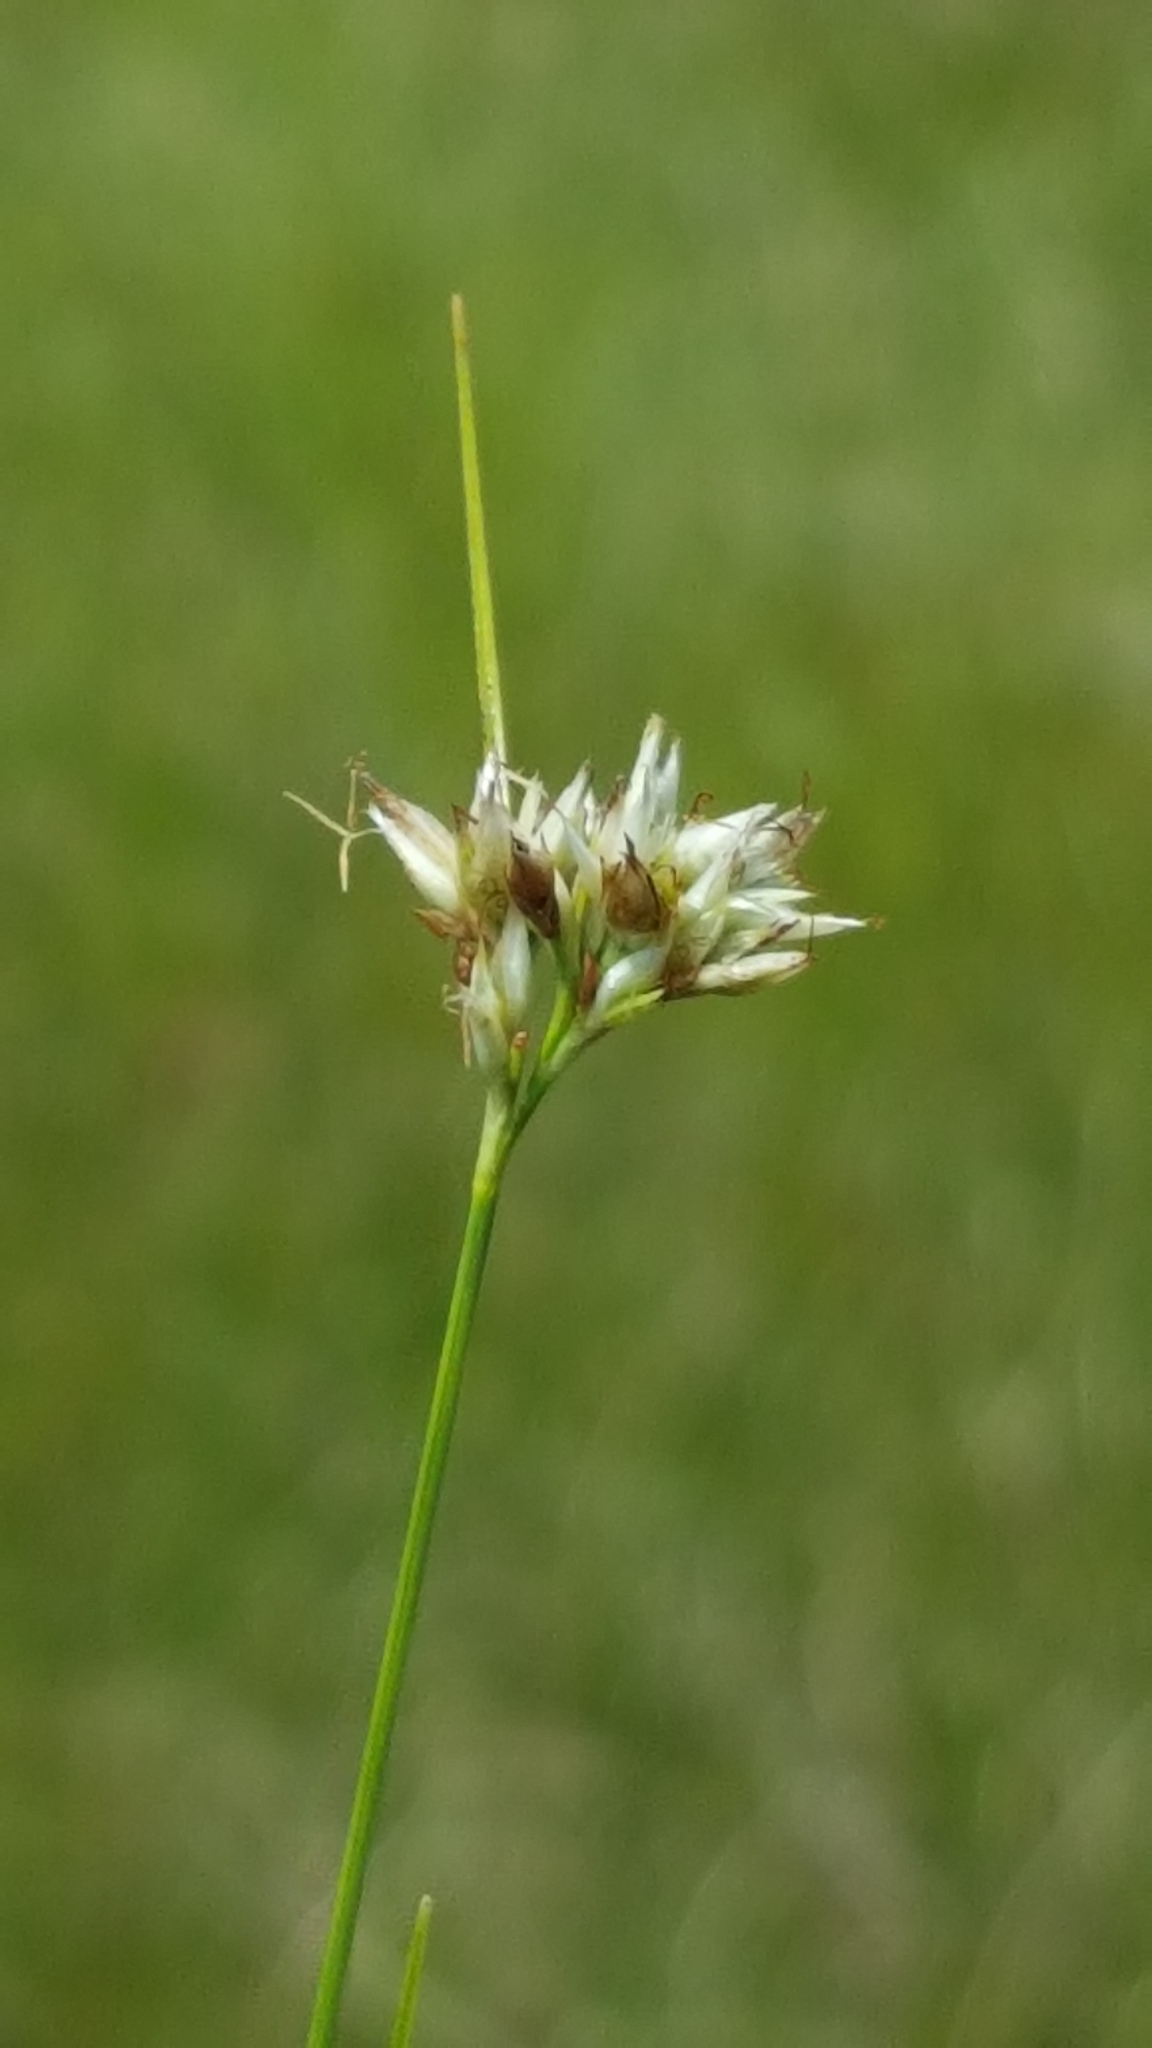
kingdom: Plantae
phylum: Tracheophyta
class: Liliopsida
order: Poales
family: Cyperaceae
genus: Rhynchospora
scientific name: Rhynchospora alba
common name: White beak-sedge
